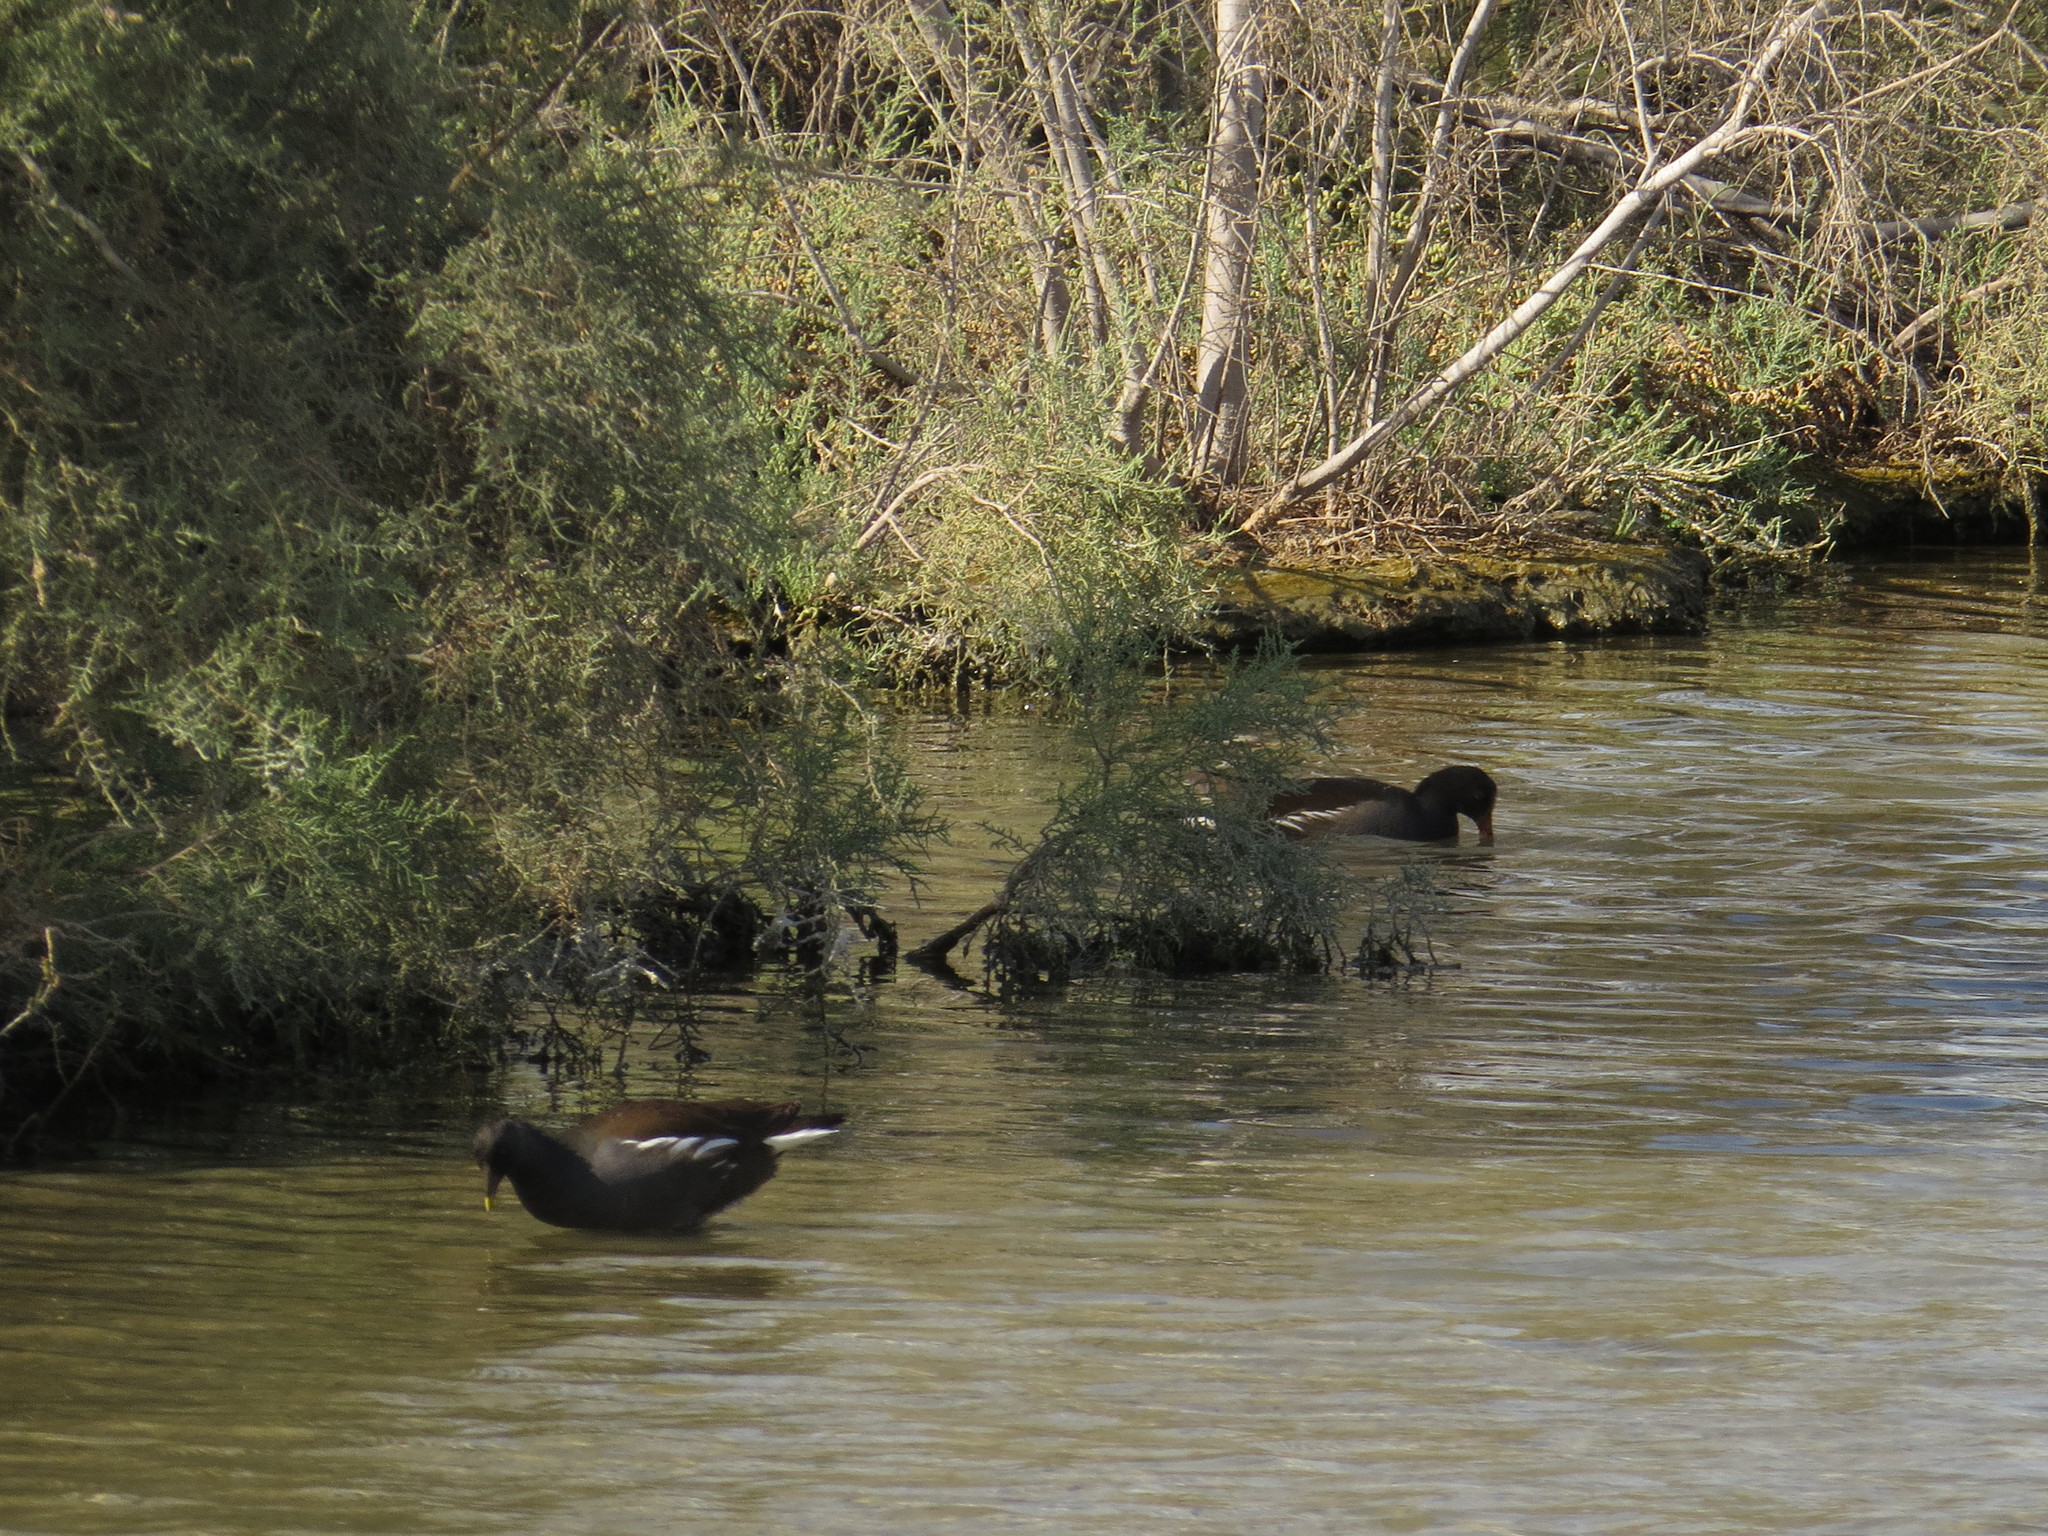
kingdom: Animalia
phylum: Chordata
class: Aves
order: Gruiformes
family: Rallidae
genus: Gallinula
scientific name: Gallinula chloropus
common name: Common moorhen
